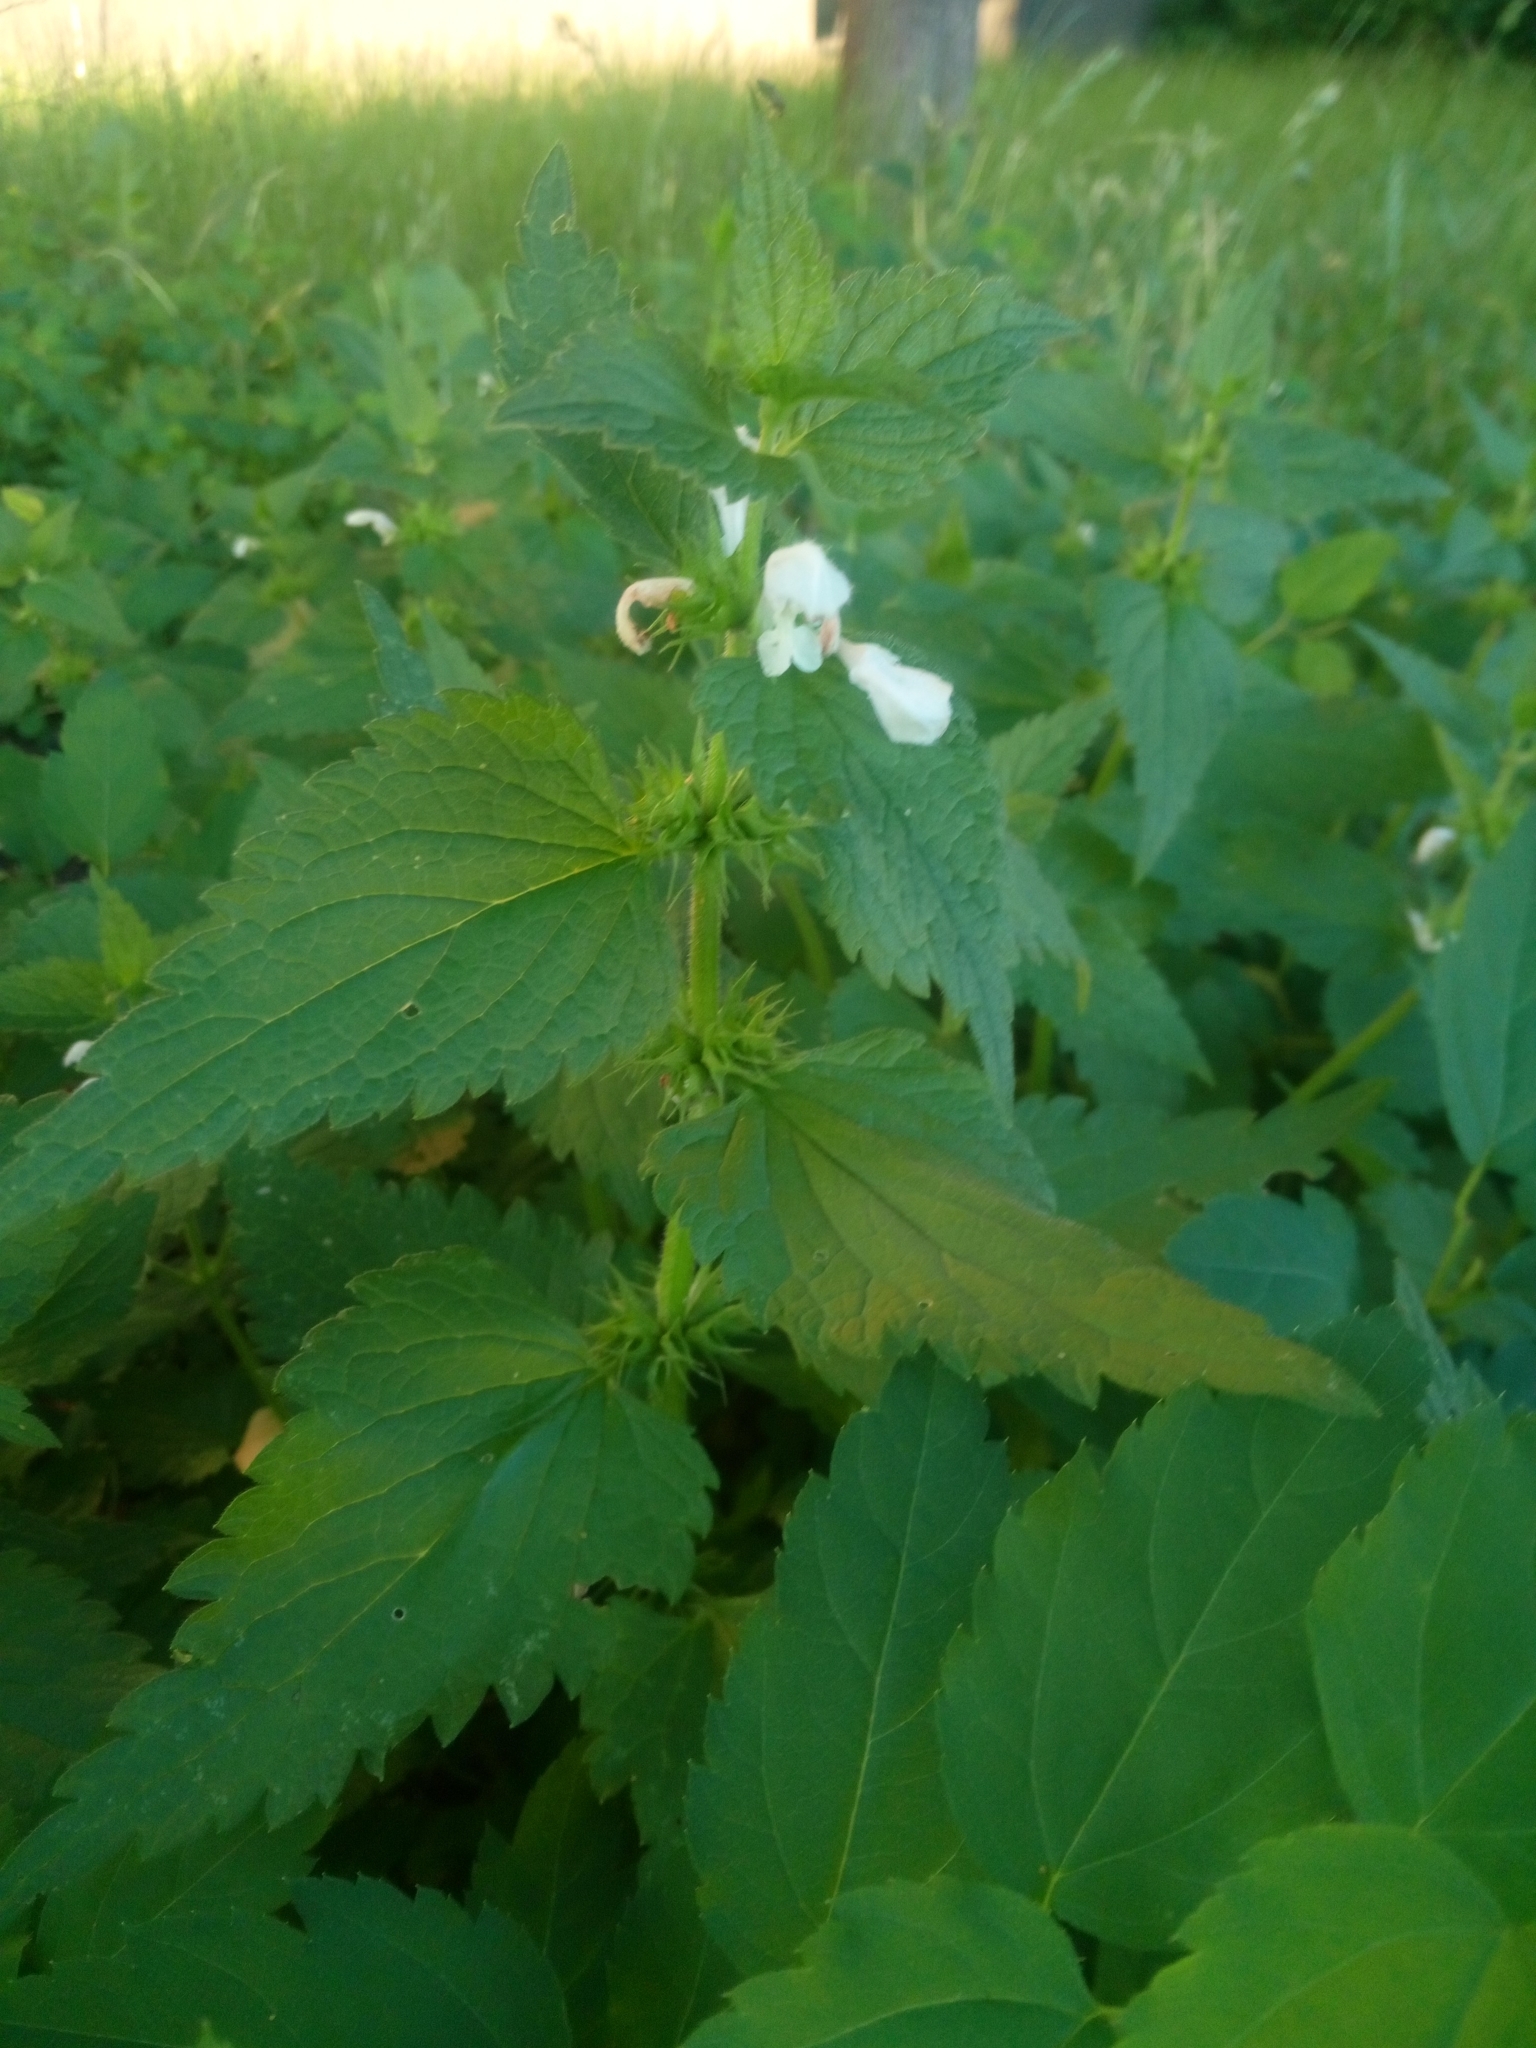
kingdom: Plantae
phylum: Tracheophyta
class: Magnoliopsida
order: Lamiales
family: Lamiaceae
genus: Lamium
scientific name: Lamium album
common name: White dead-nettle
